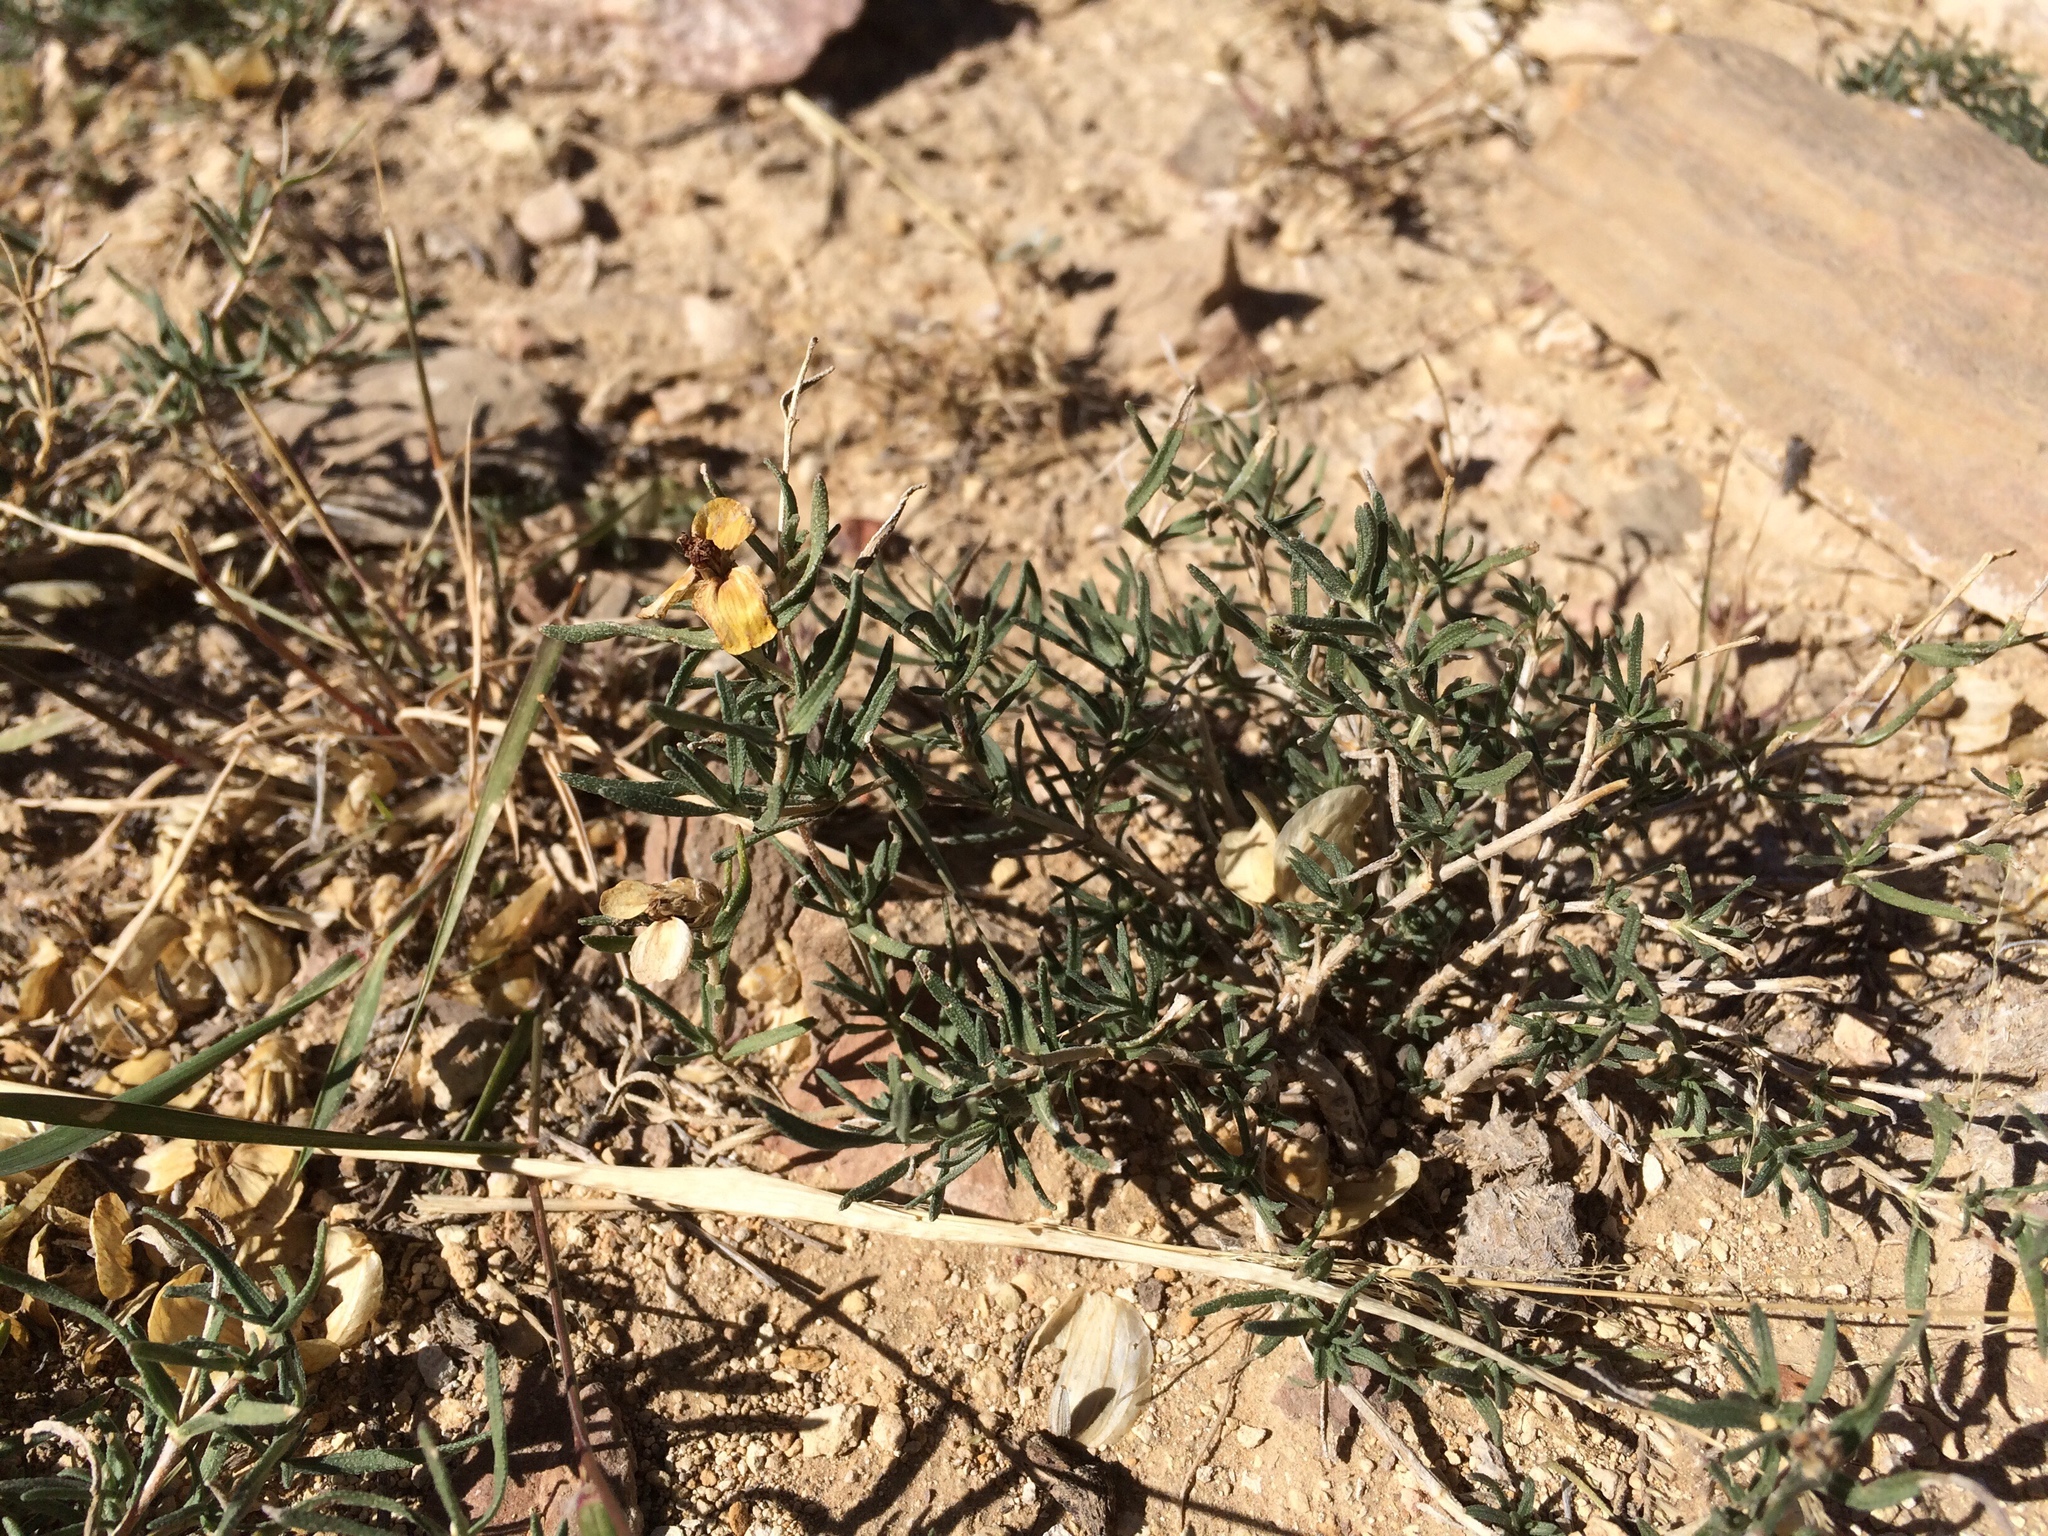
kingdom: Plantae
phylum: Tracheophyta
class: Magnoliopsida
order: Asterales
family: Asteraceae
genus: Zinnia
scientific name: Zinnia grandiflora
